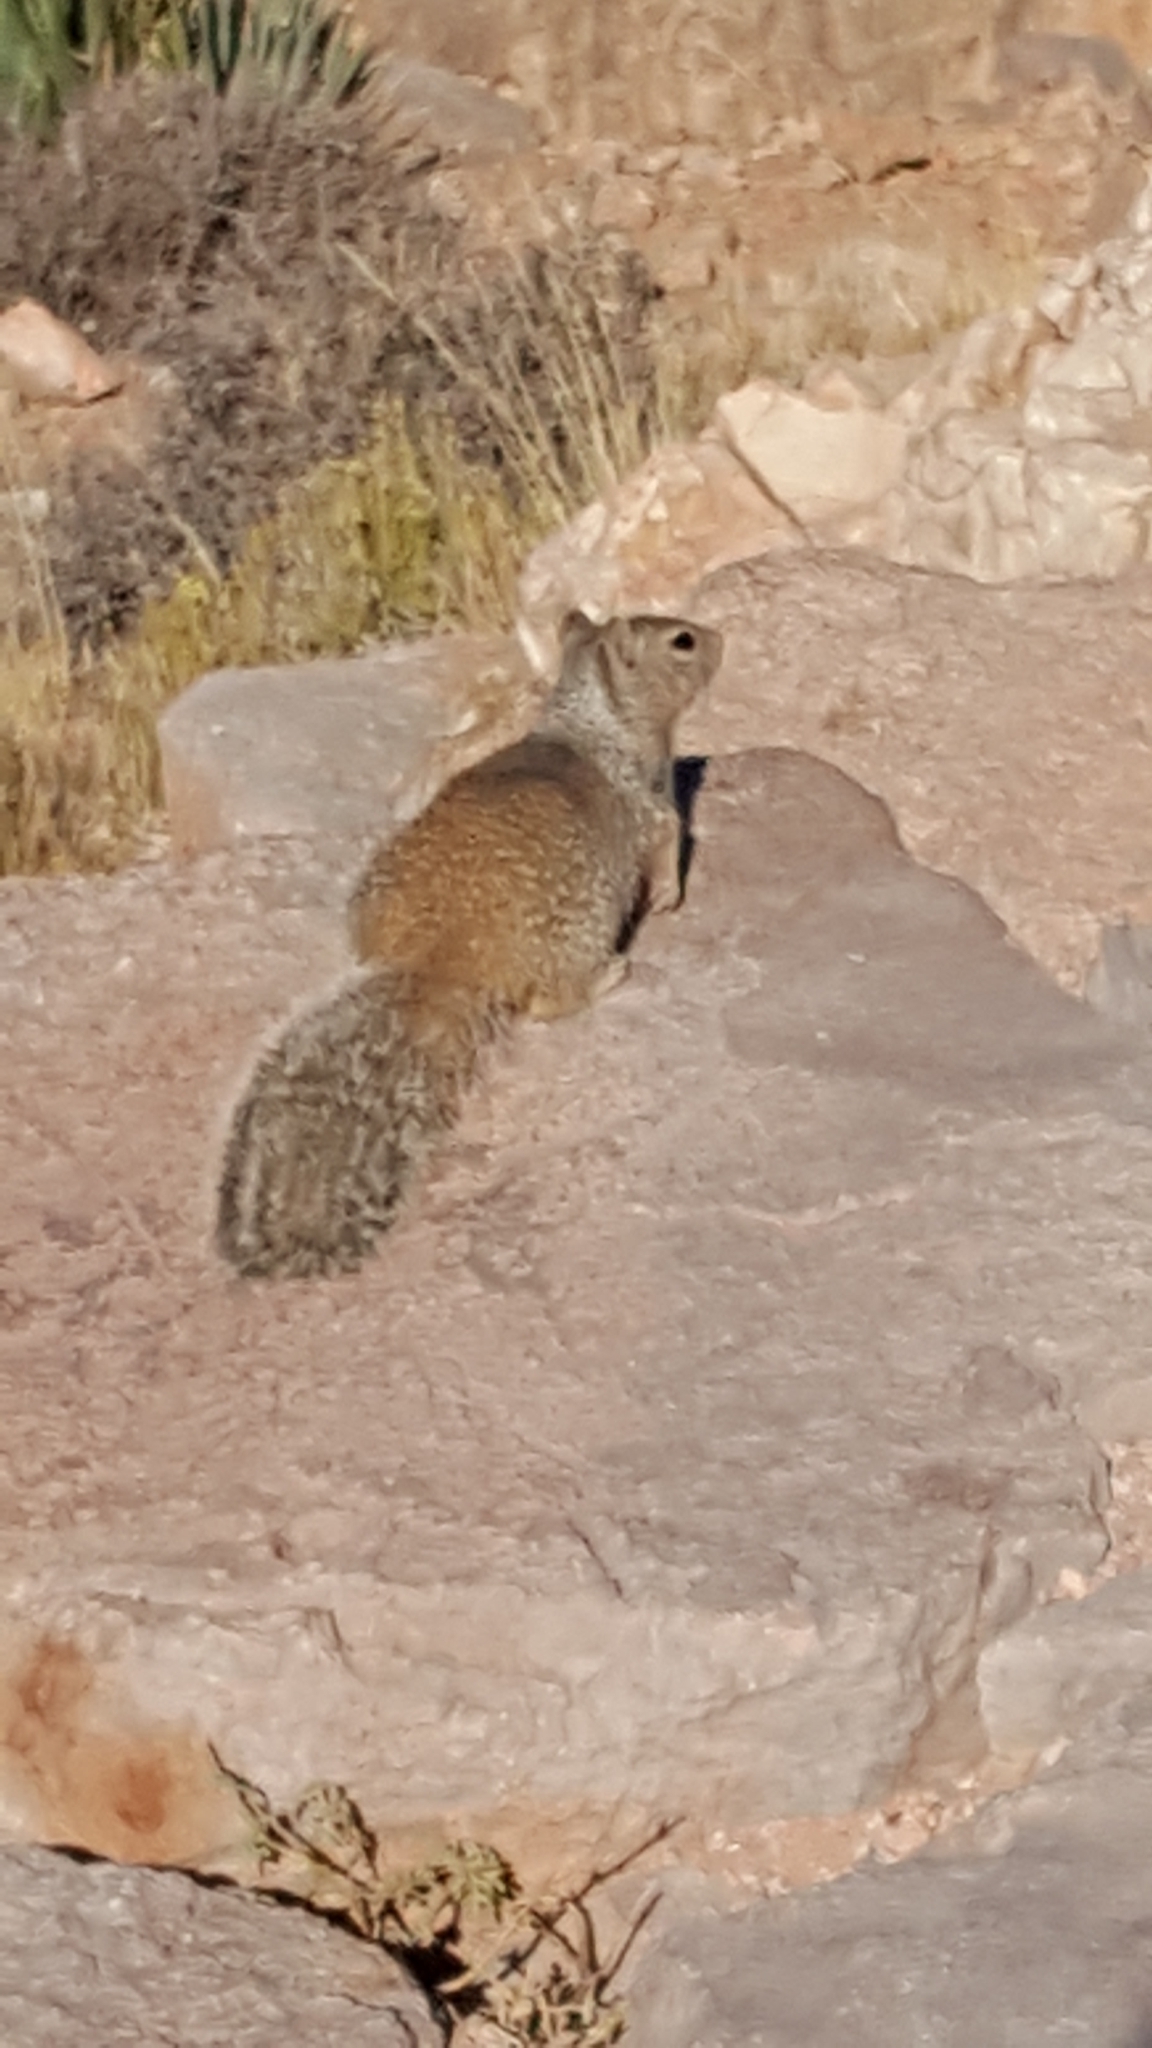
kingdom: Animalia
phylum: Chordata
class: Mammalia
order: Rodentia
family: Sciuridae
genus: Otospermophilus
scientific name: Otospermophilus variegatus
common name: Rock squirrel
